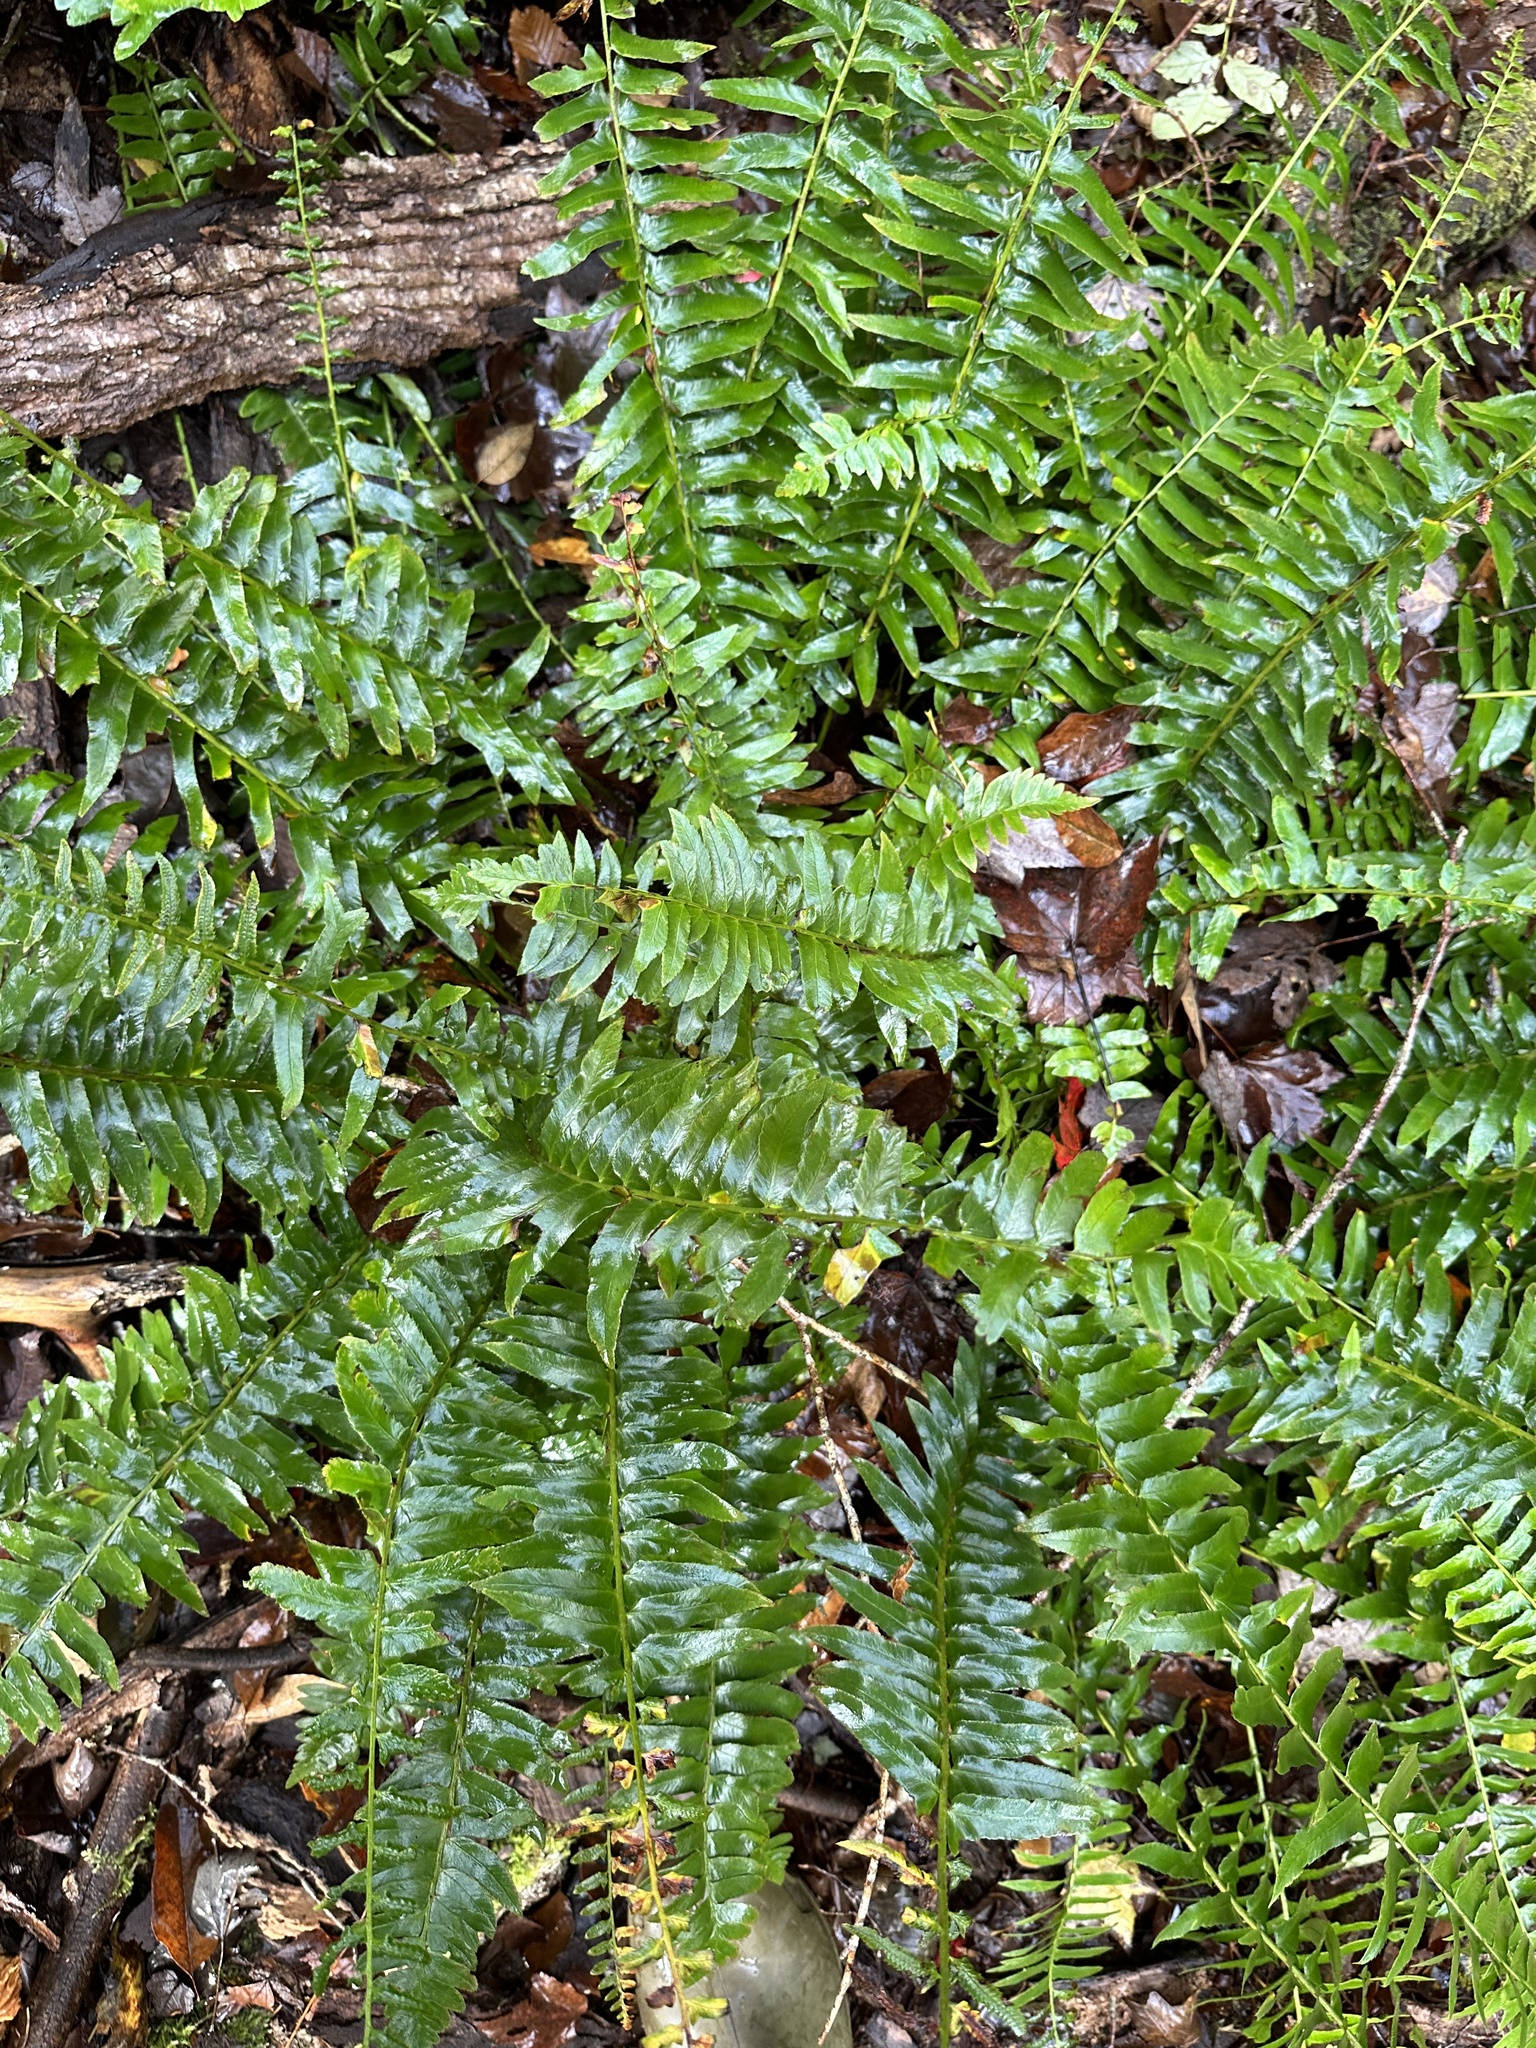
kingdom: Plantae
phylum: Tracheophyta
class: Polypodiopsida
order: Polypodiales
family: Dryopteridaceae
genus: Polystichum
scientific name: Polystichum acrostichoides
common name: Christmas fern
